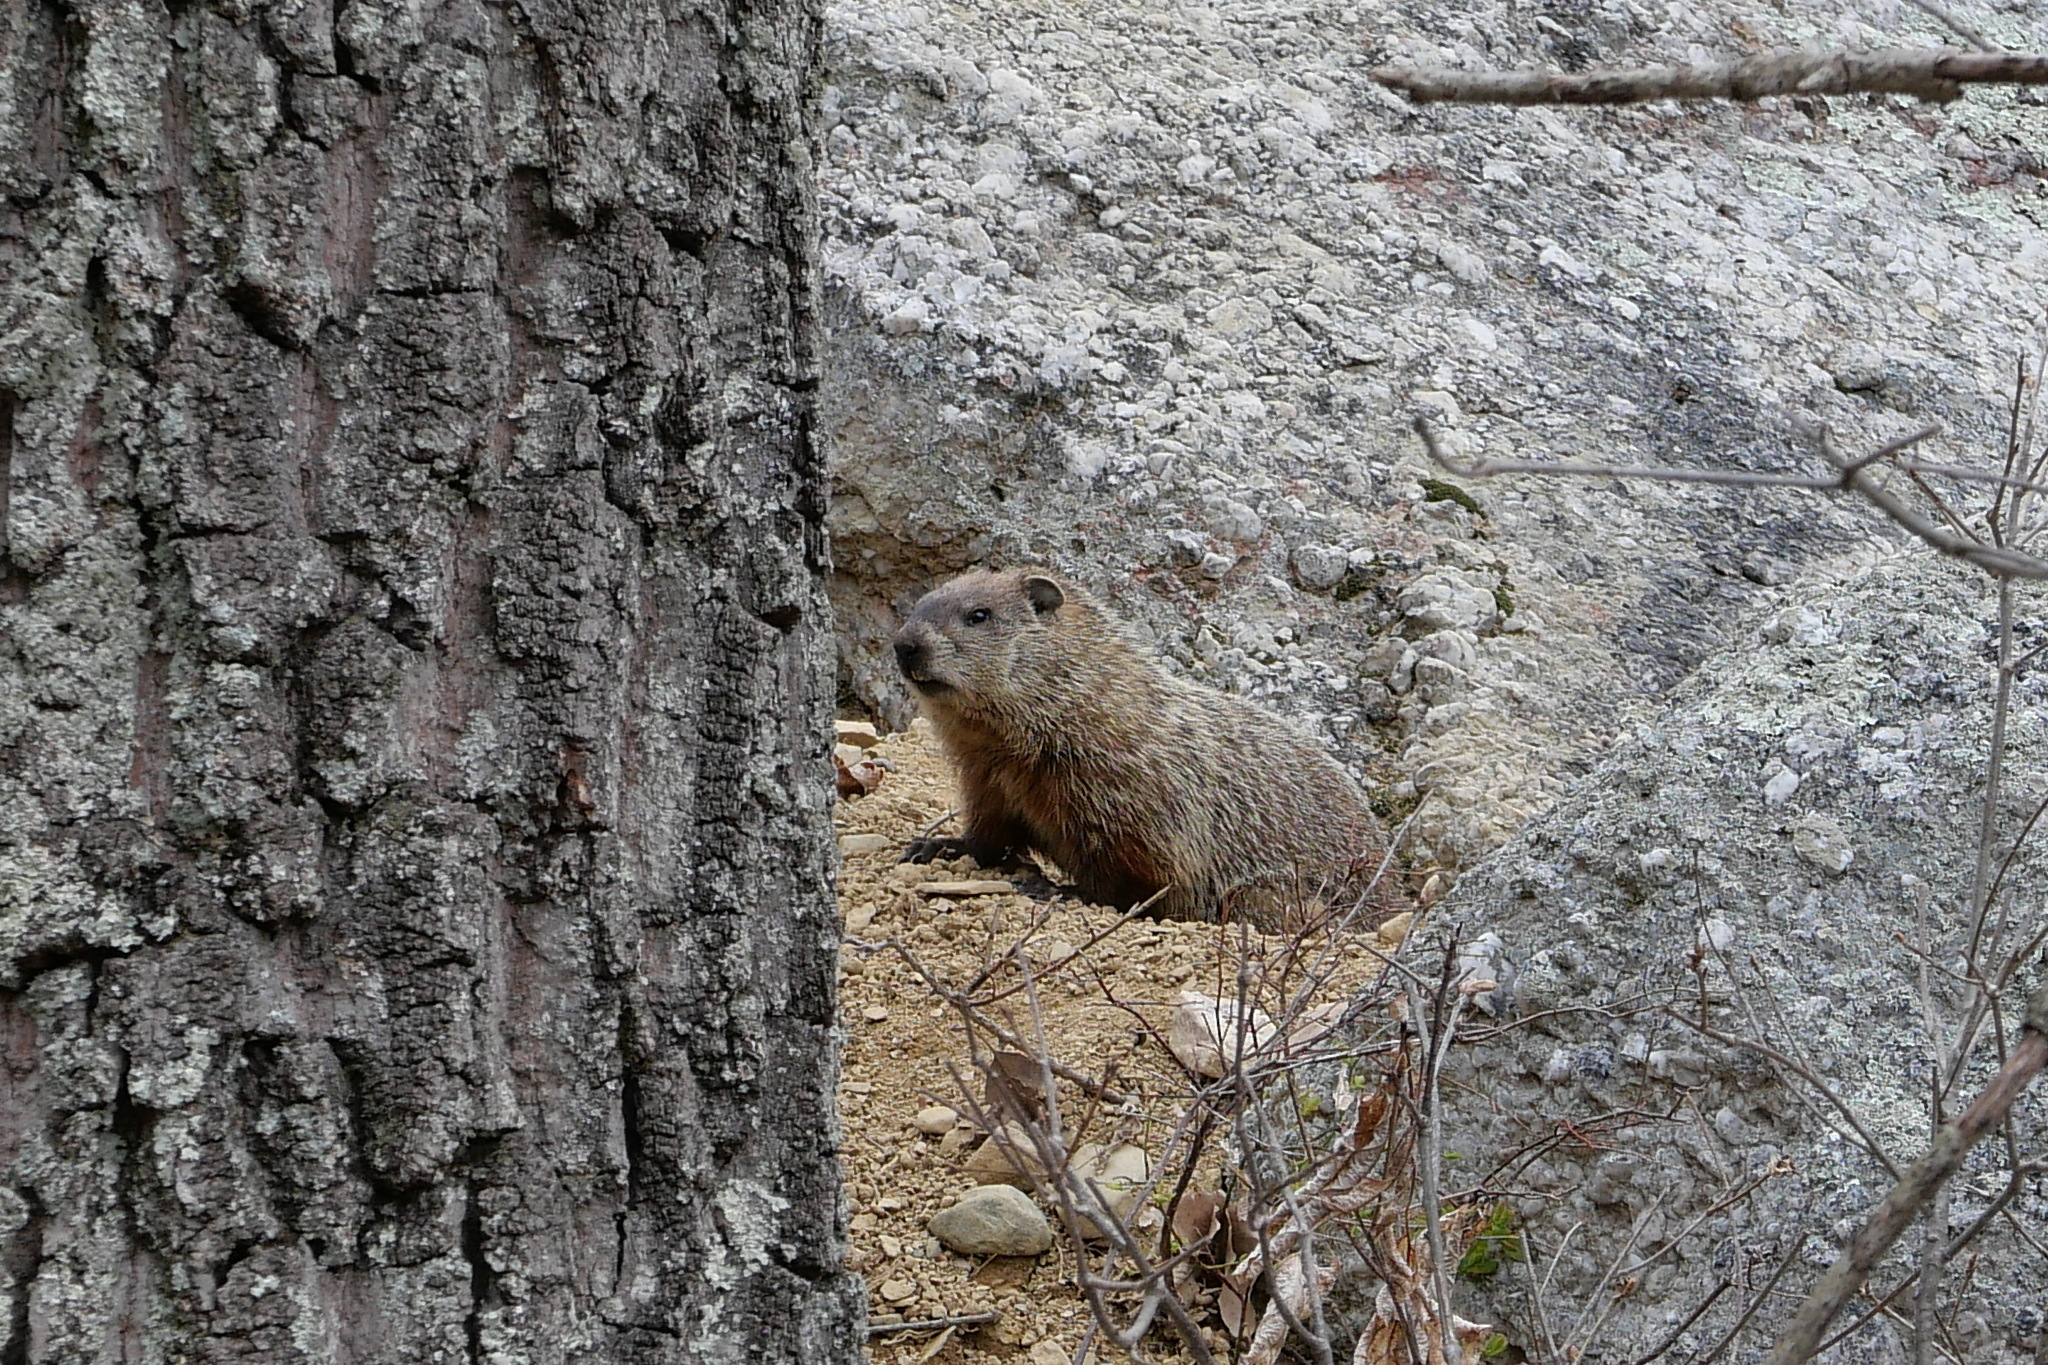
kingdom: Animalia
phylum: Chordata
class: Mammalia
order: Rodentia
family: Sciuridae
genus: Marmota
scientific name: Marmota monax
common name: Groundhog
